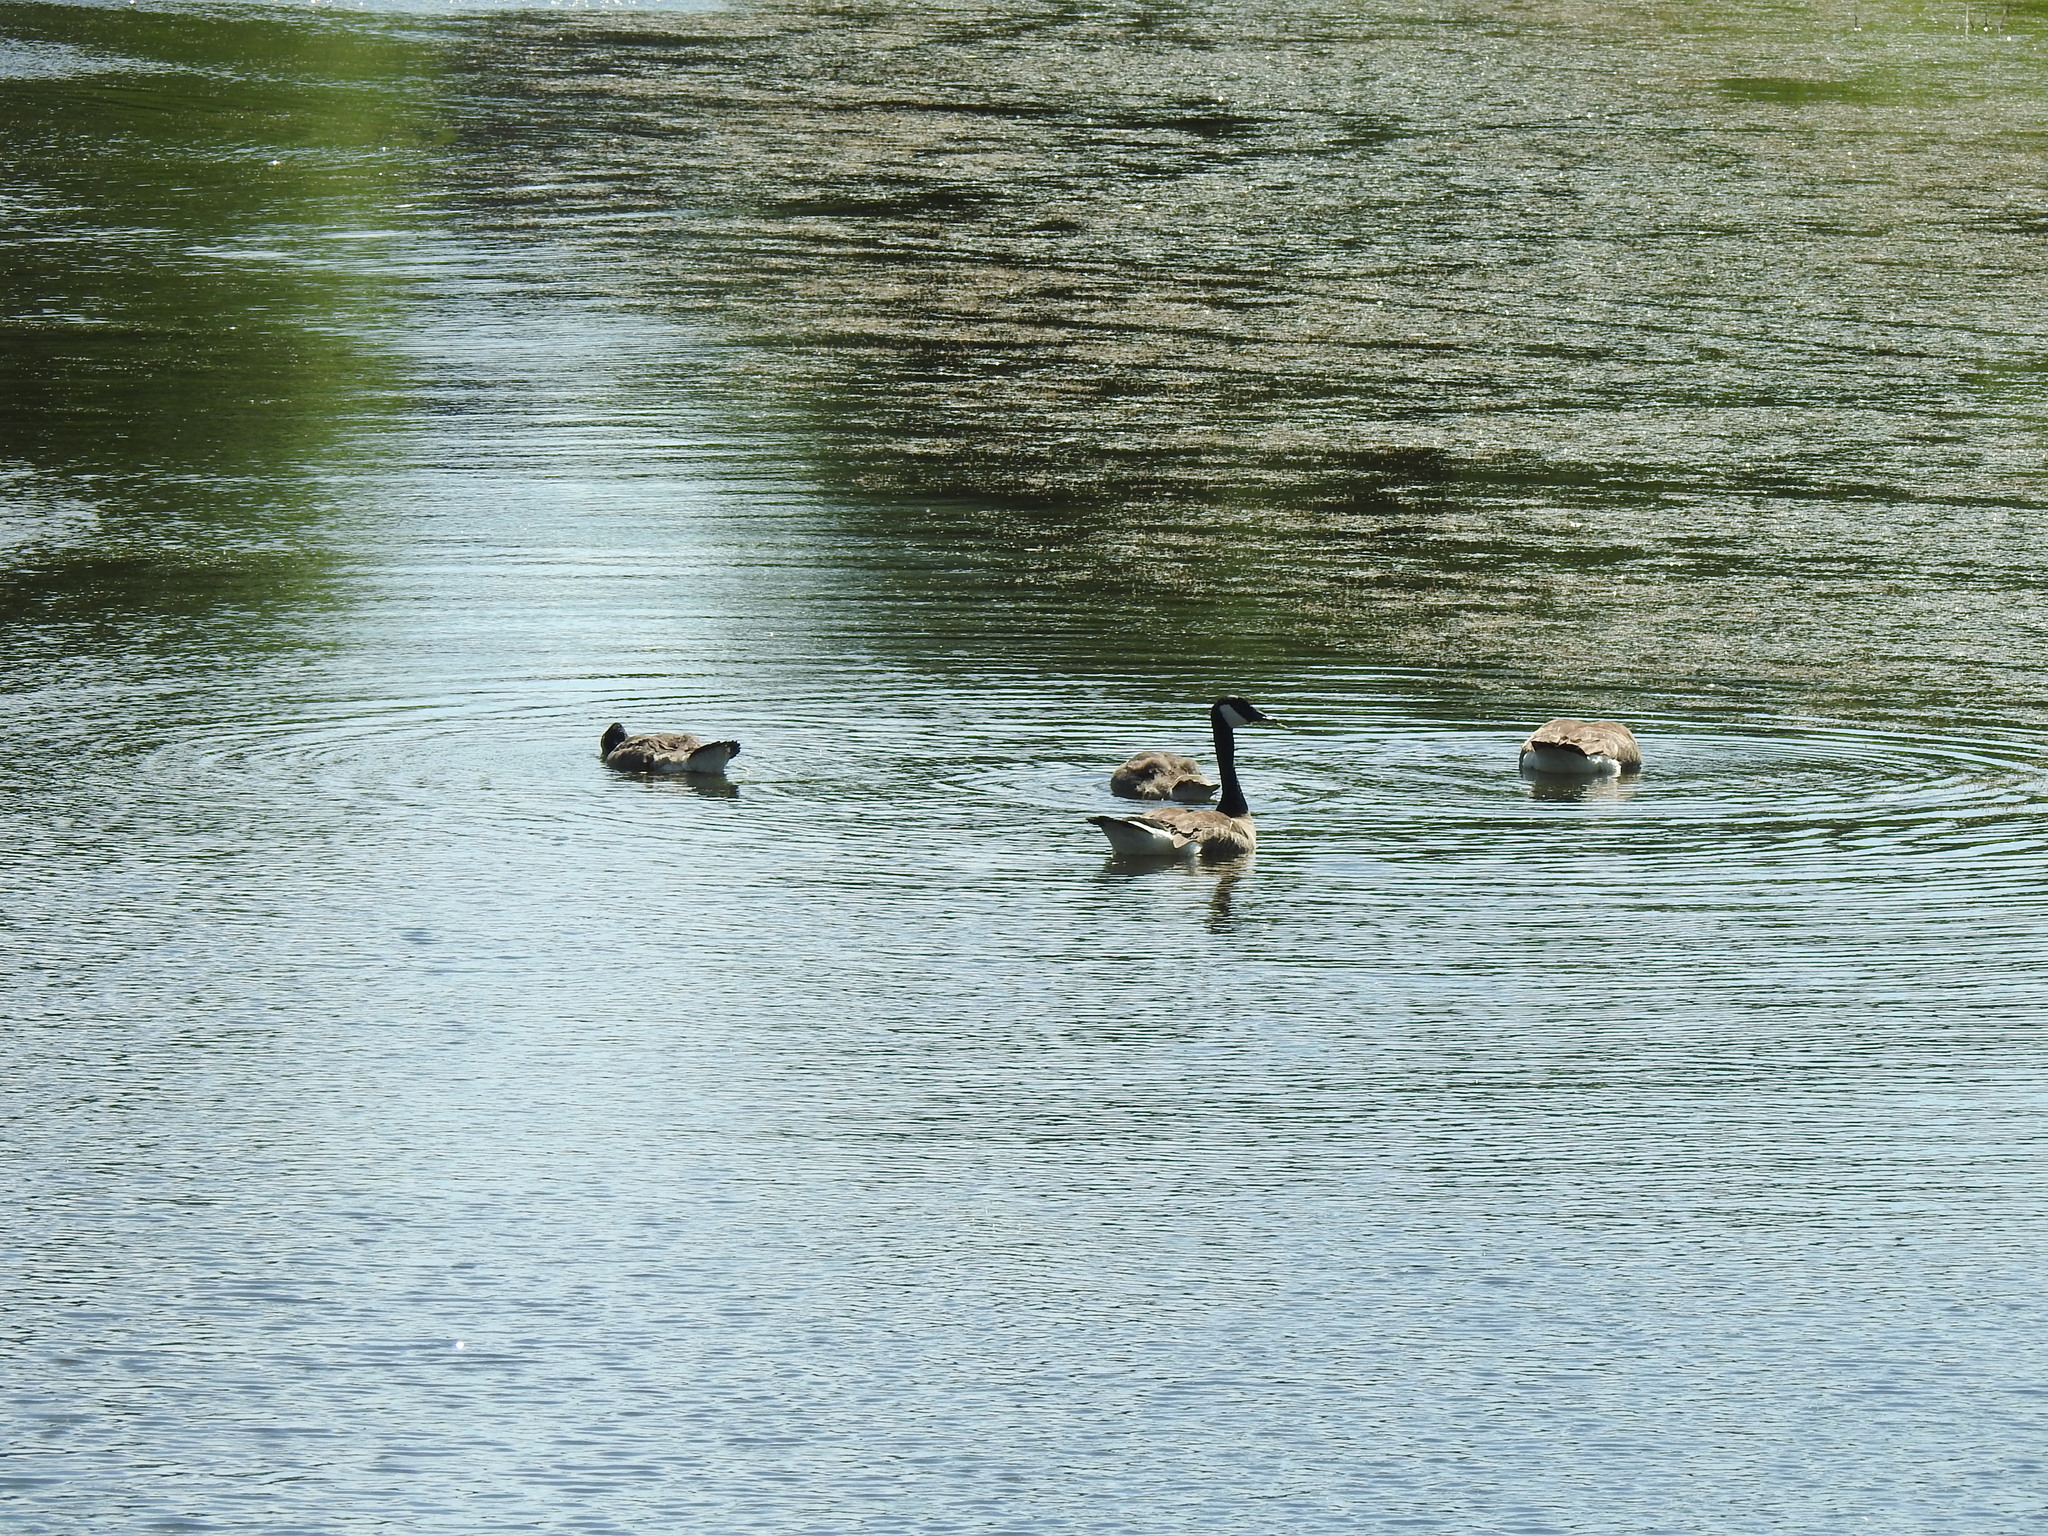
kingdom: Animalia
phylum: Chordata
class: Aves
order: Anseriformes
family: Anatidae
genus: Branta
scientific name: Branta canadensis
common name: Canada goose
